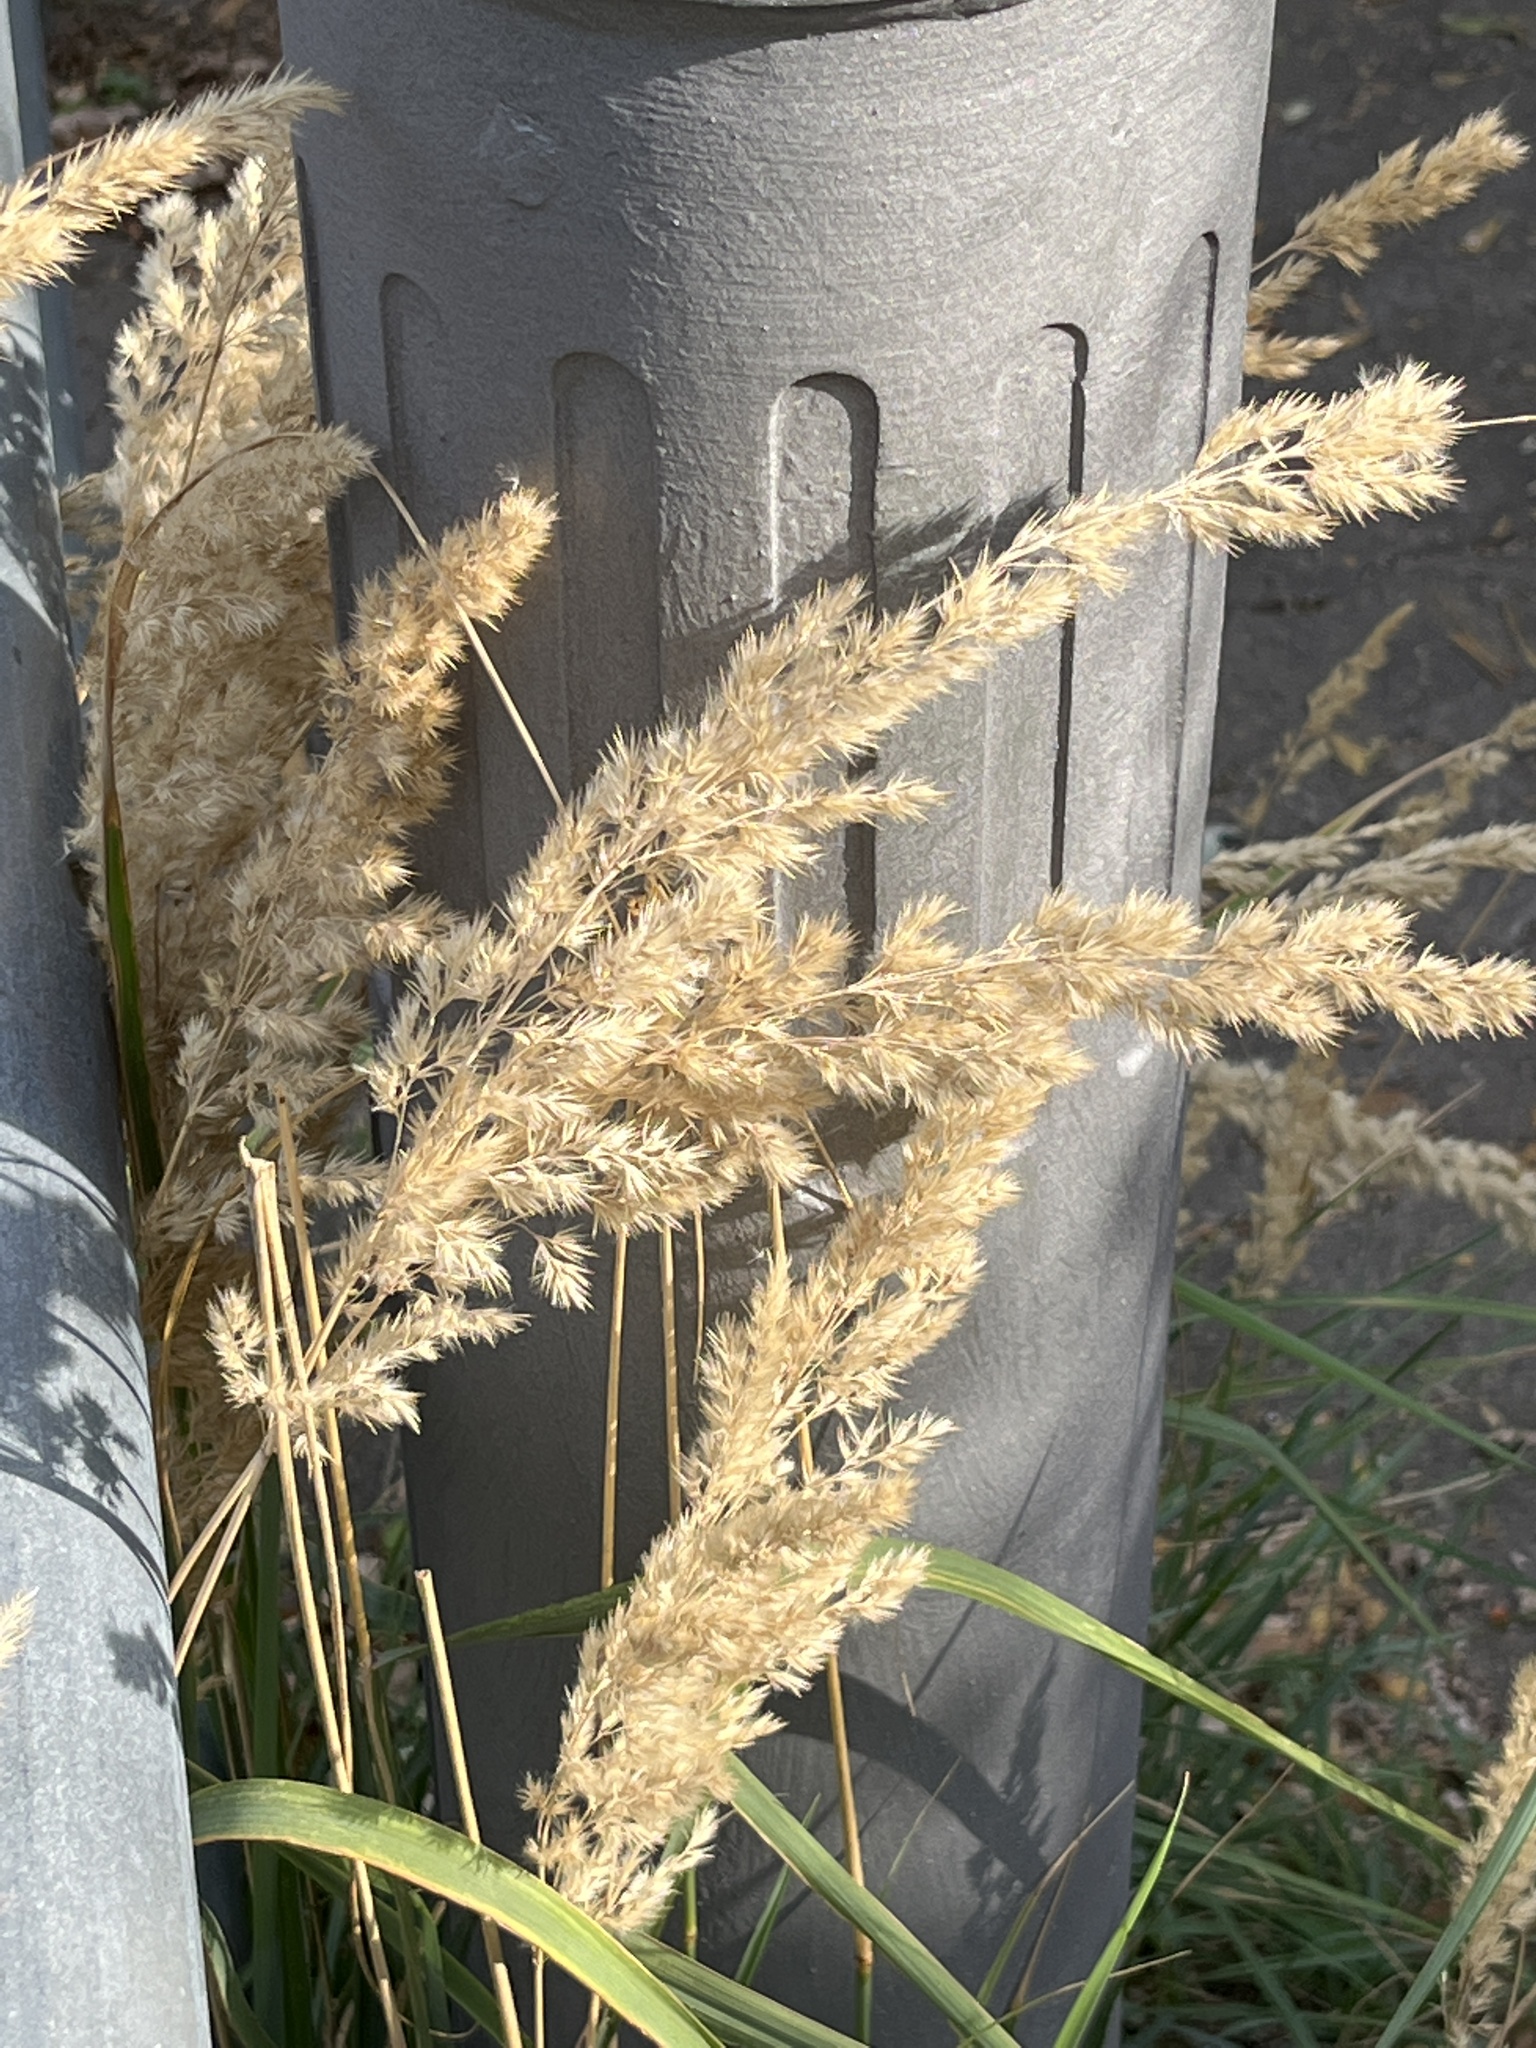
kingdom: Plantae
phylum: Tracheophyta
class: Liliopsida
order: Poales
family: Poaceae
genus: Calamagrostis
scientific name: Calamagrostis epigejos
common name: Wood small-reed
